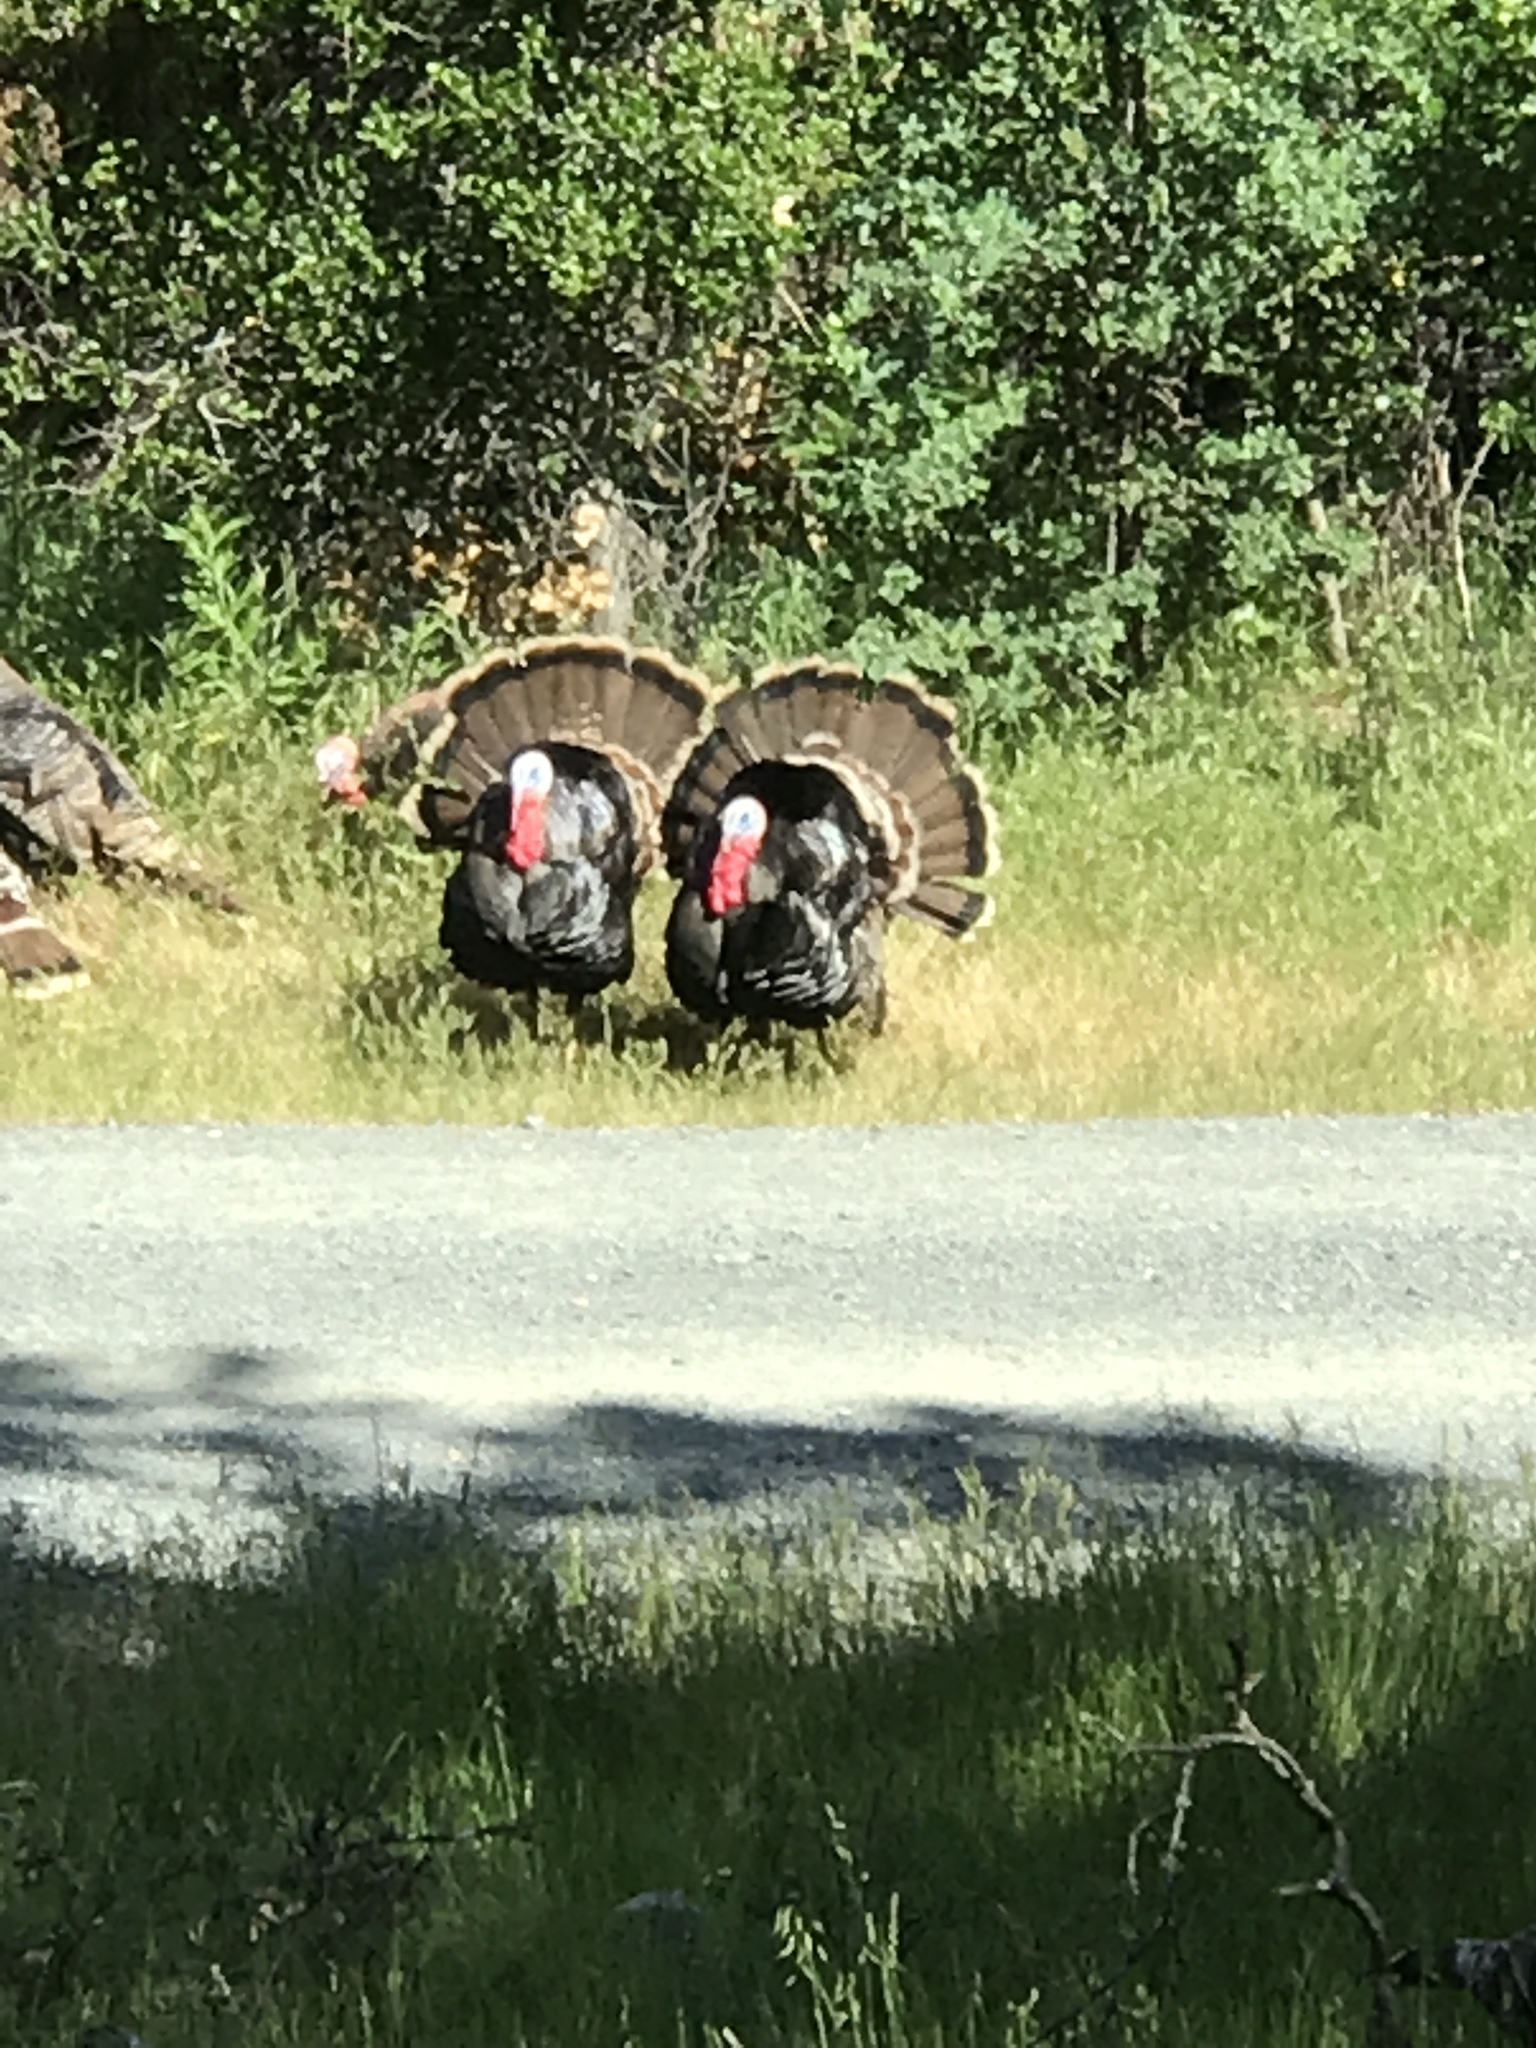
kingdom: Animalia
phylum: Chordata
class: Aves
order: Galliformes
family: Phasianidae
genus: Meleagris
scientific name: Meleagris gallopavo
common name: Wild turkey
